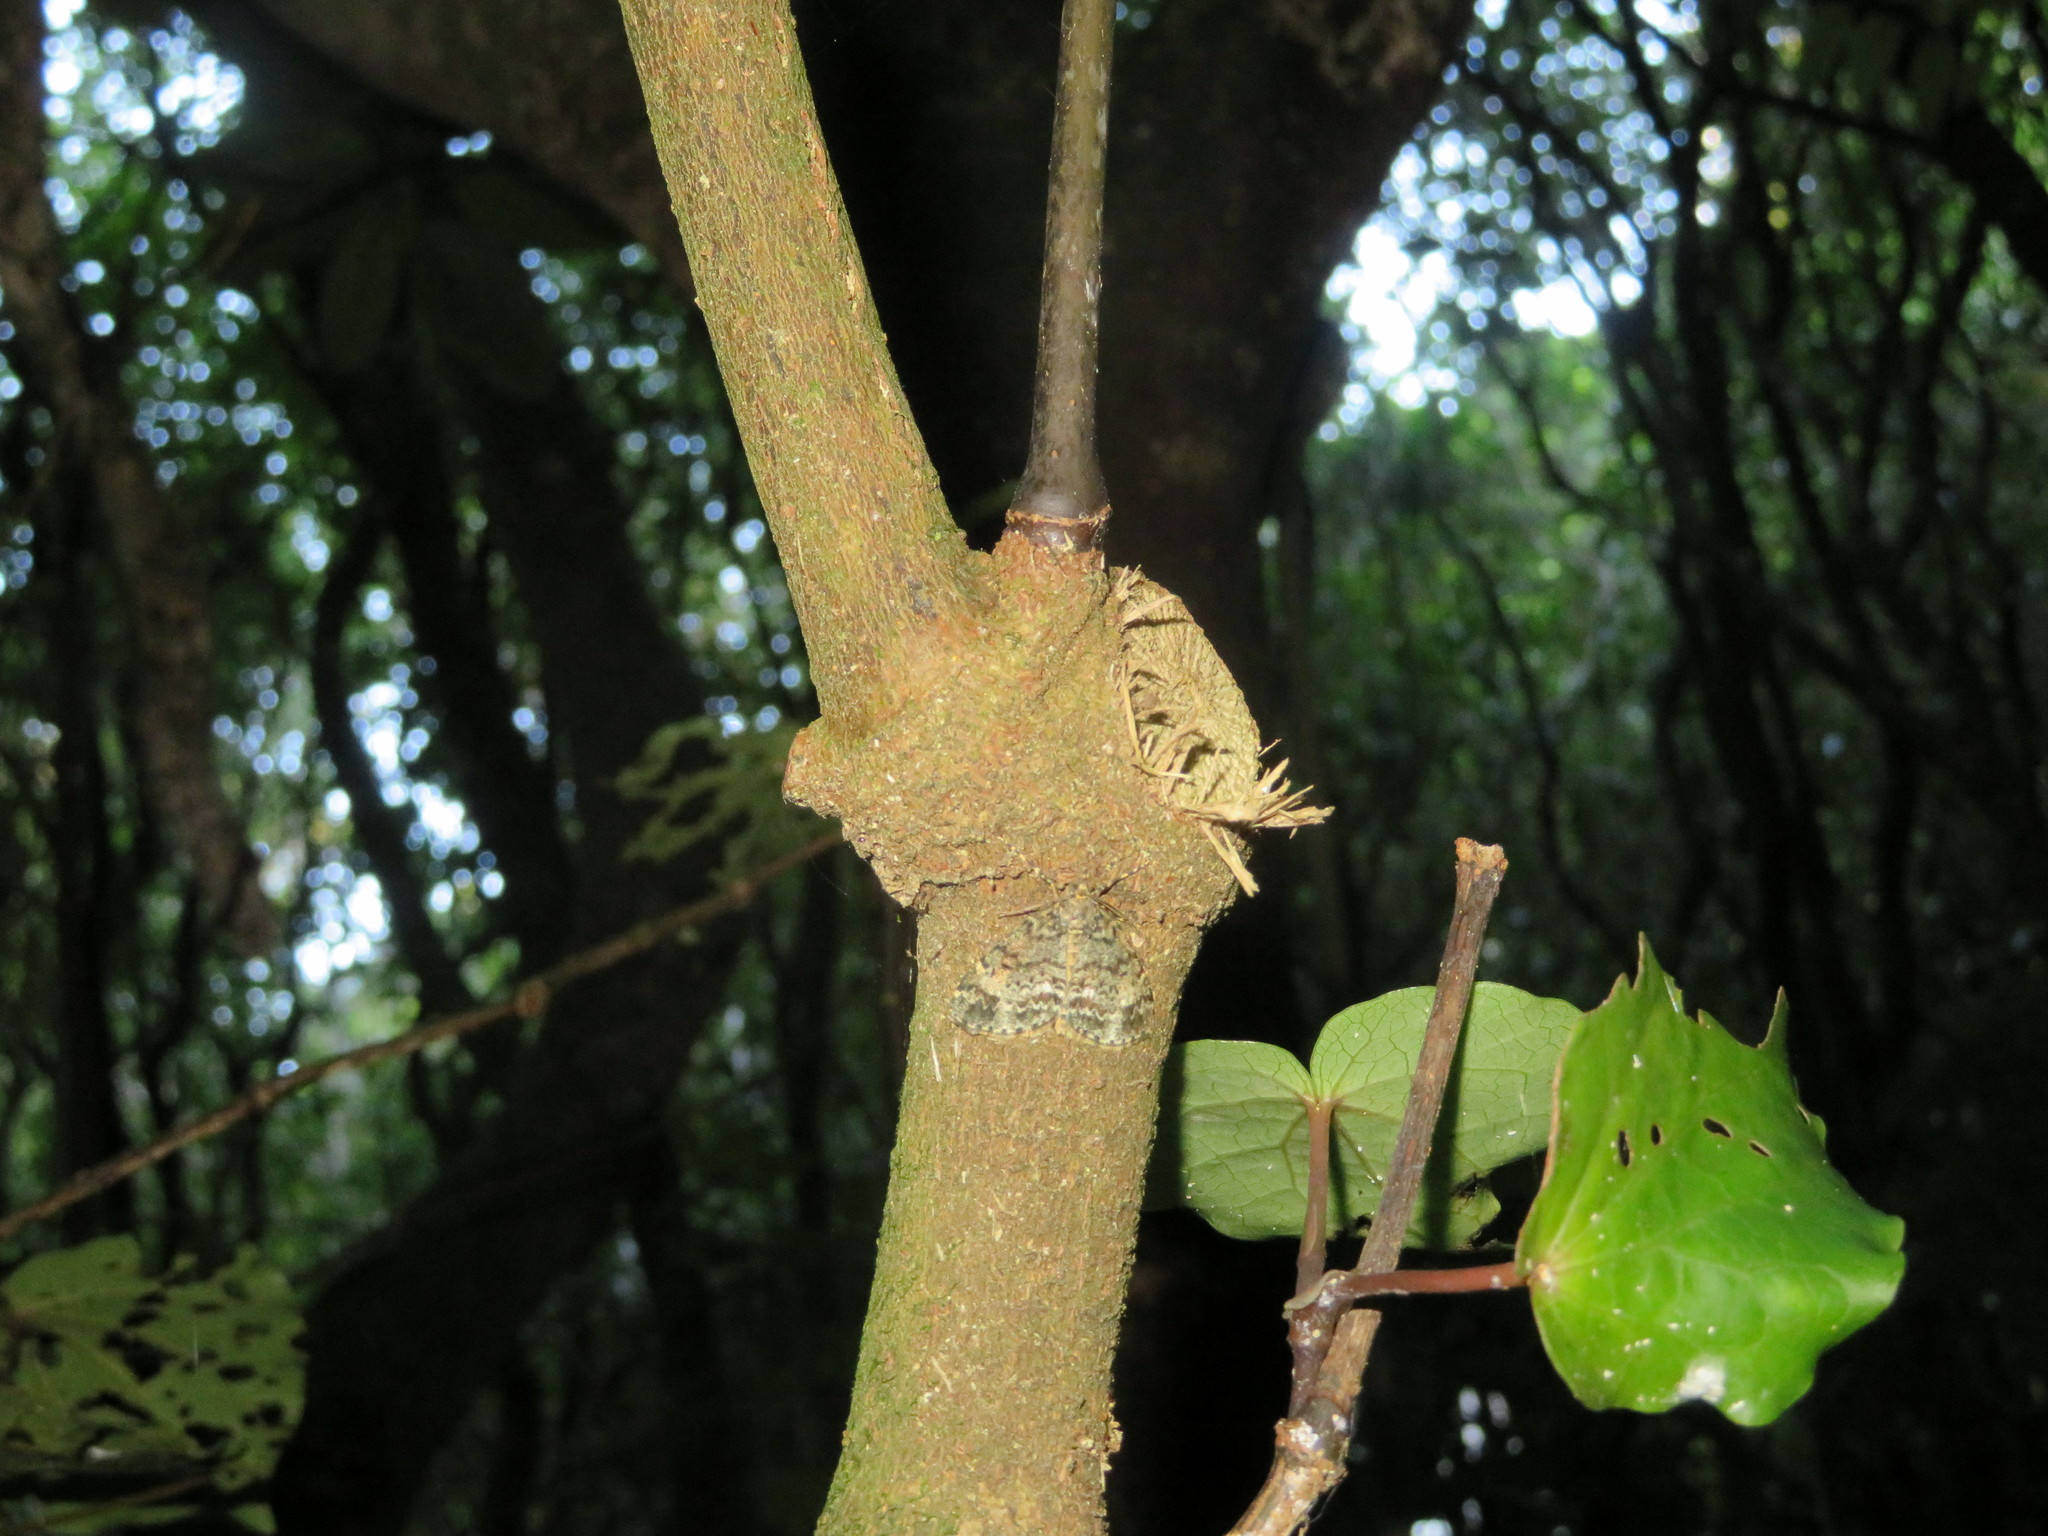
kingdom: Animalia
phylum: Arthropoda
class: Insecta
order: Lepidoptera
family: Geometridae
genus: Pseudocoremia
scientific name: Pseudocoremia indistincta
